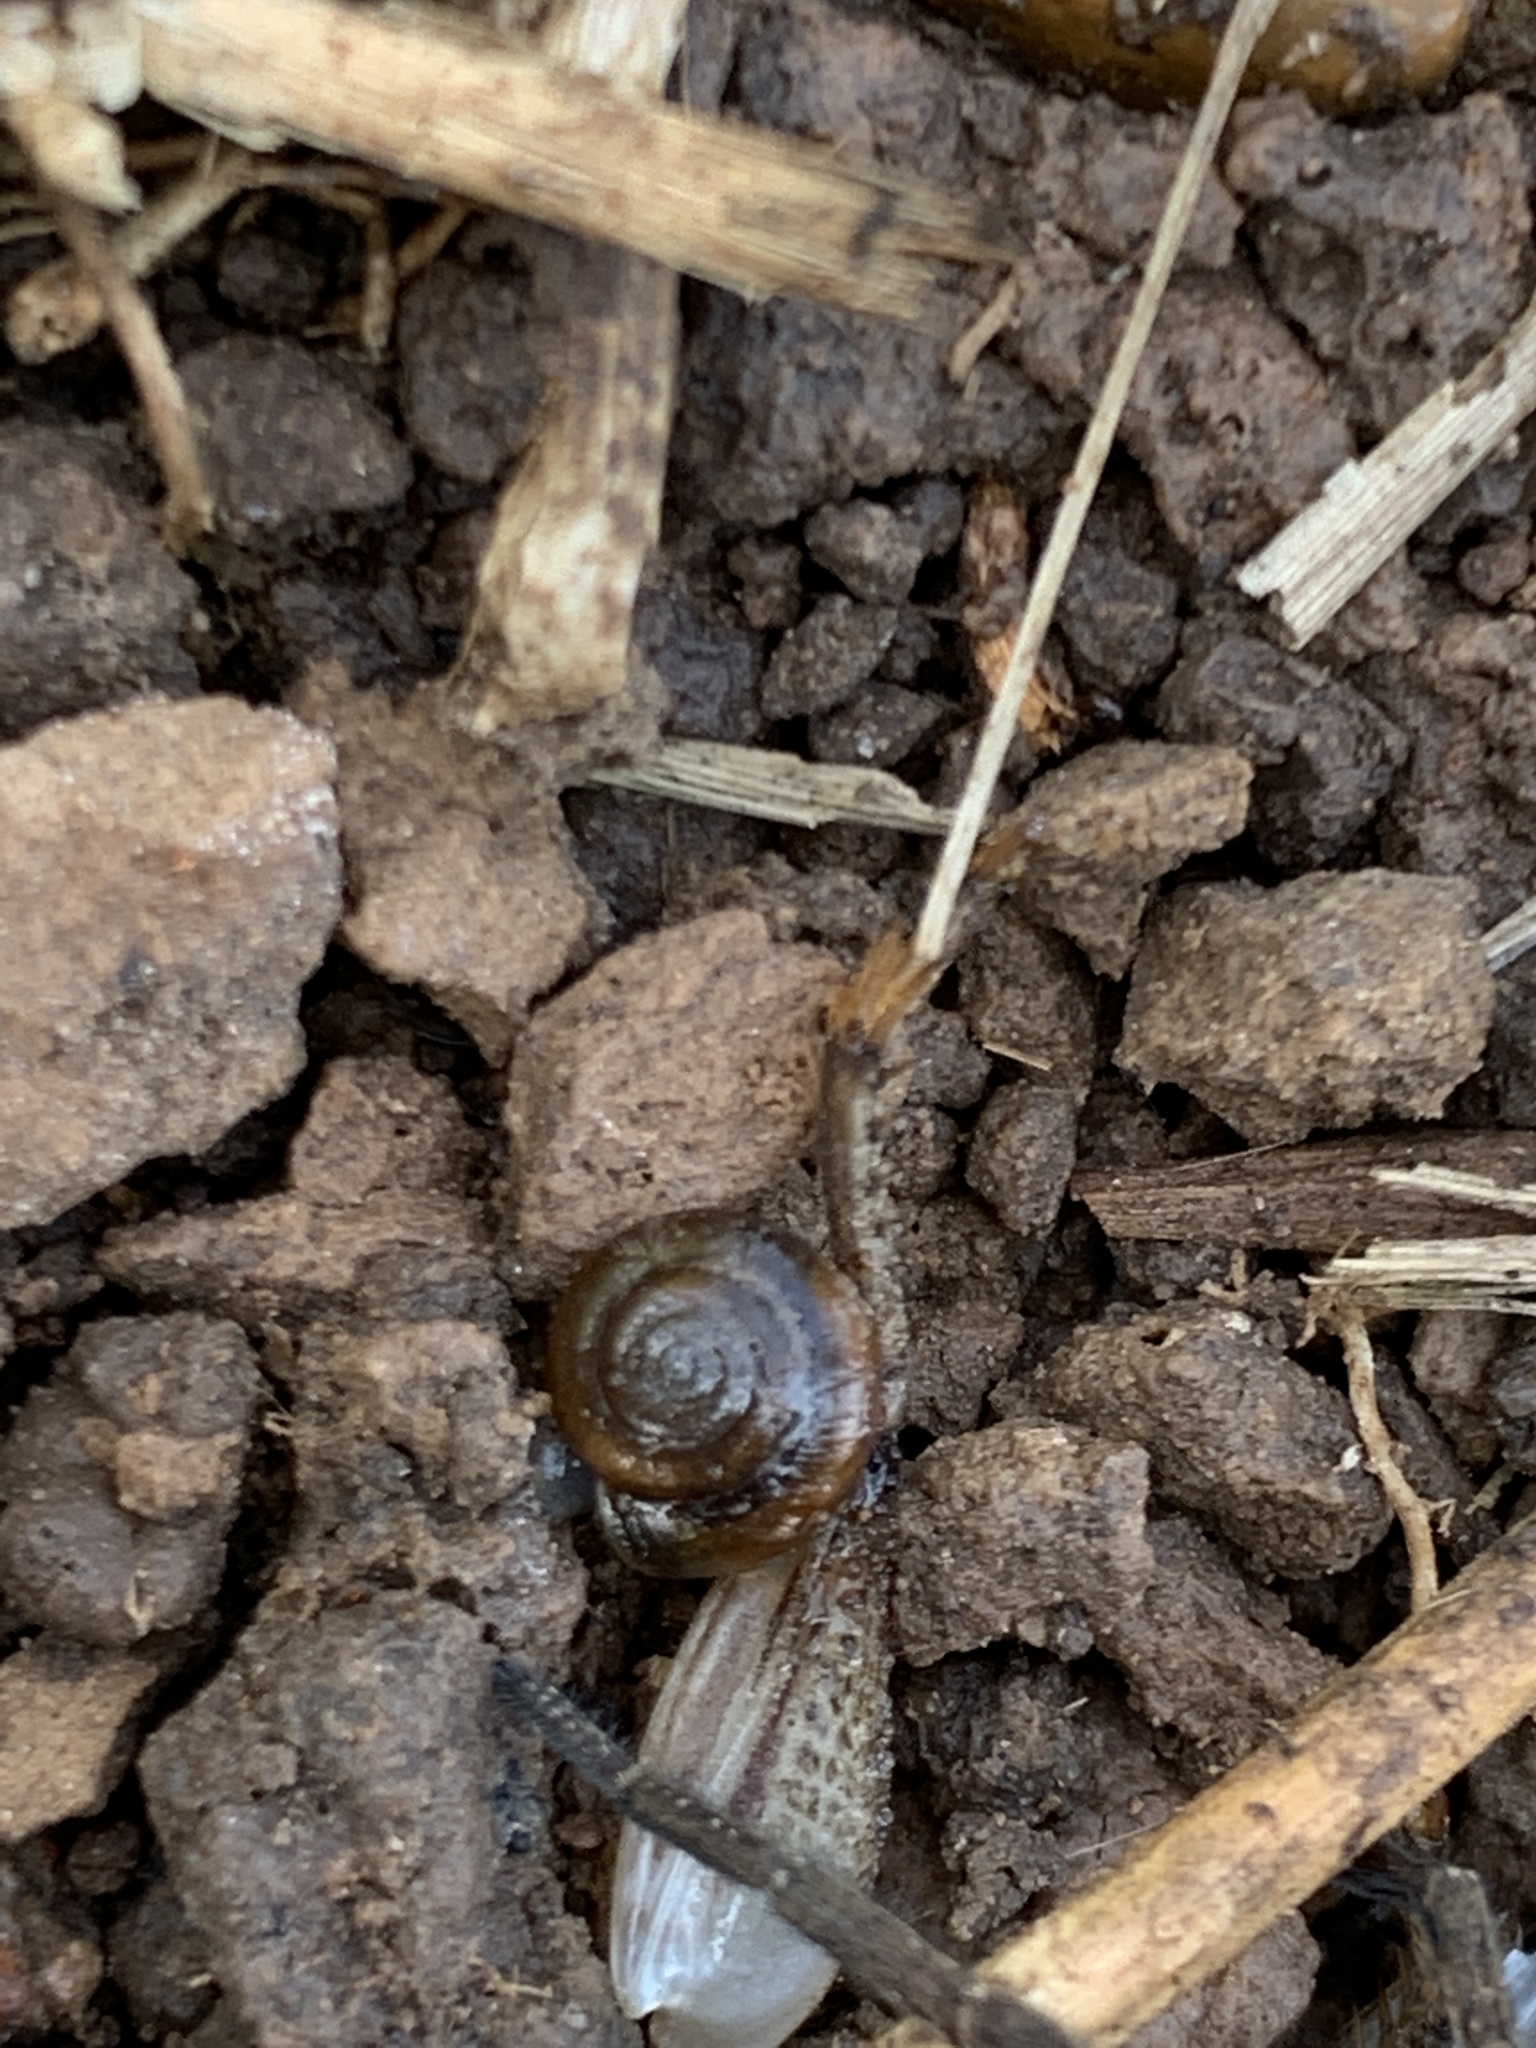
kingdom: Animalia
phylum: Mollusca
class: Gastropoda
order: Stylommatophora
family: Oxychilidae
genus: Oxychilus
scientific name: Oxychilus draparnaudi
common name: Draparnaud's glass snail
